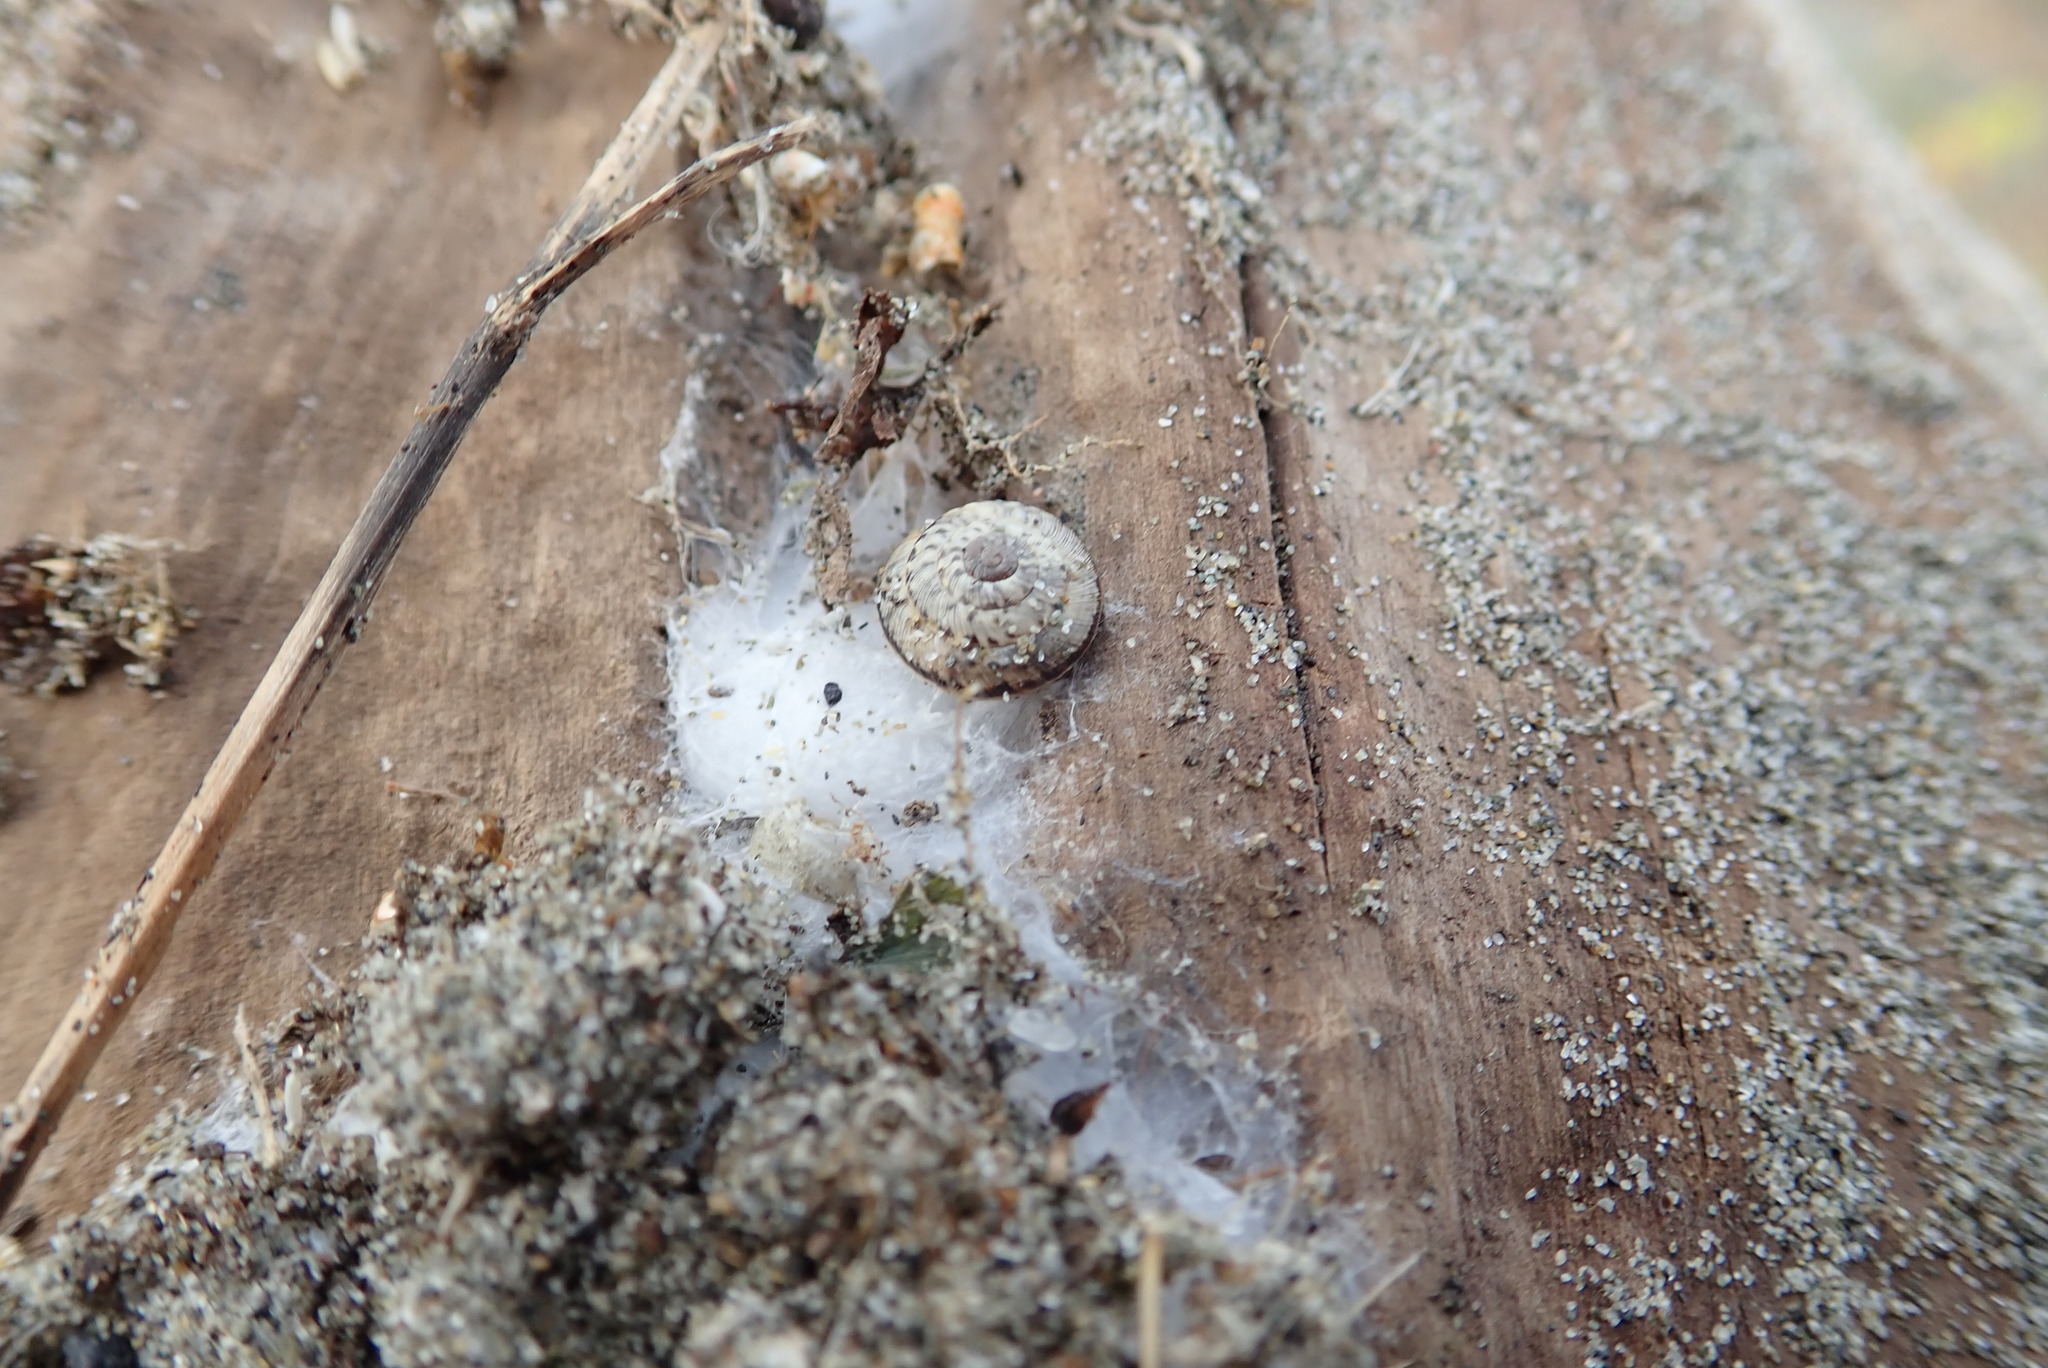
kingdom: Animalia
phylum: Mollusca
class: Gastropoda
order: Stylommatophora
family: Geomitridae
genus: Xeroplexa
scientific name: Xeroplexa intersecta
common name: Wrinkled snail
